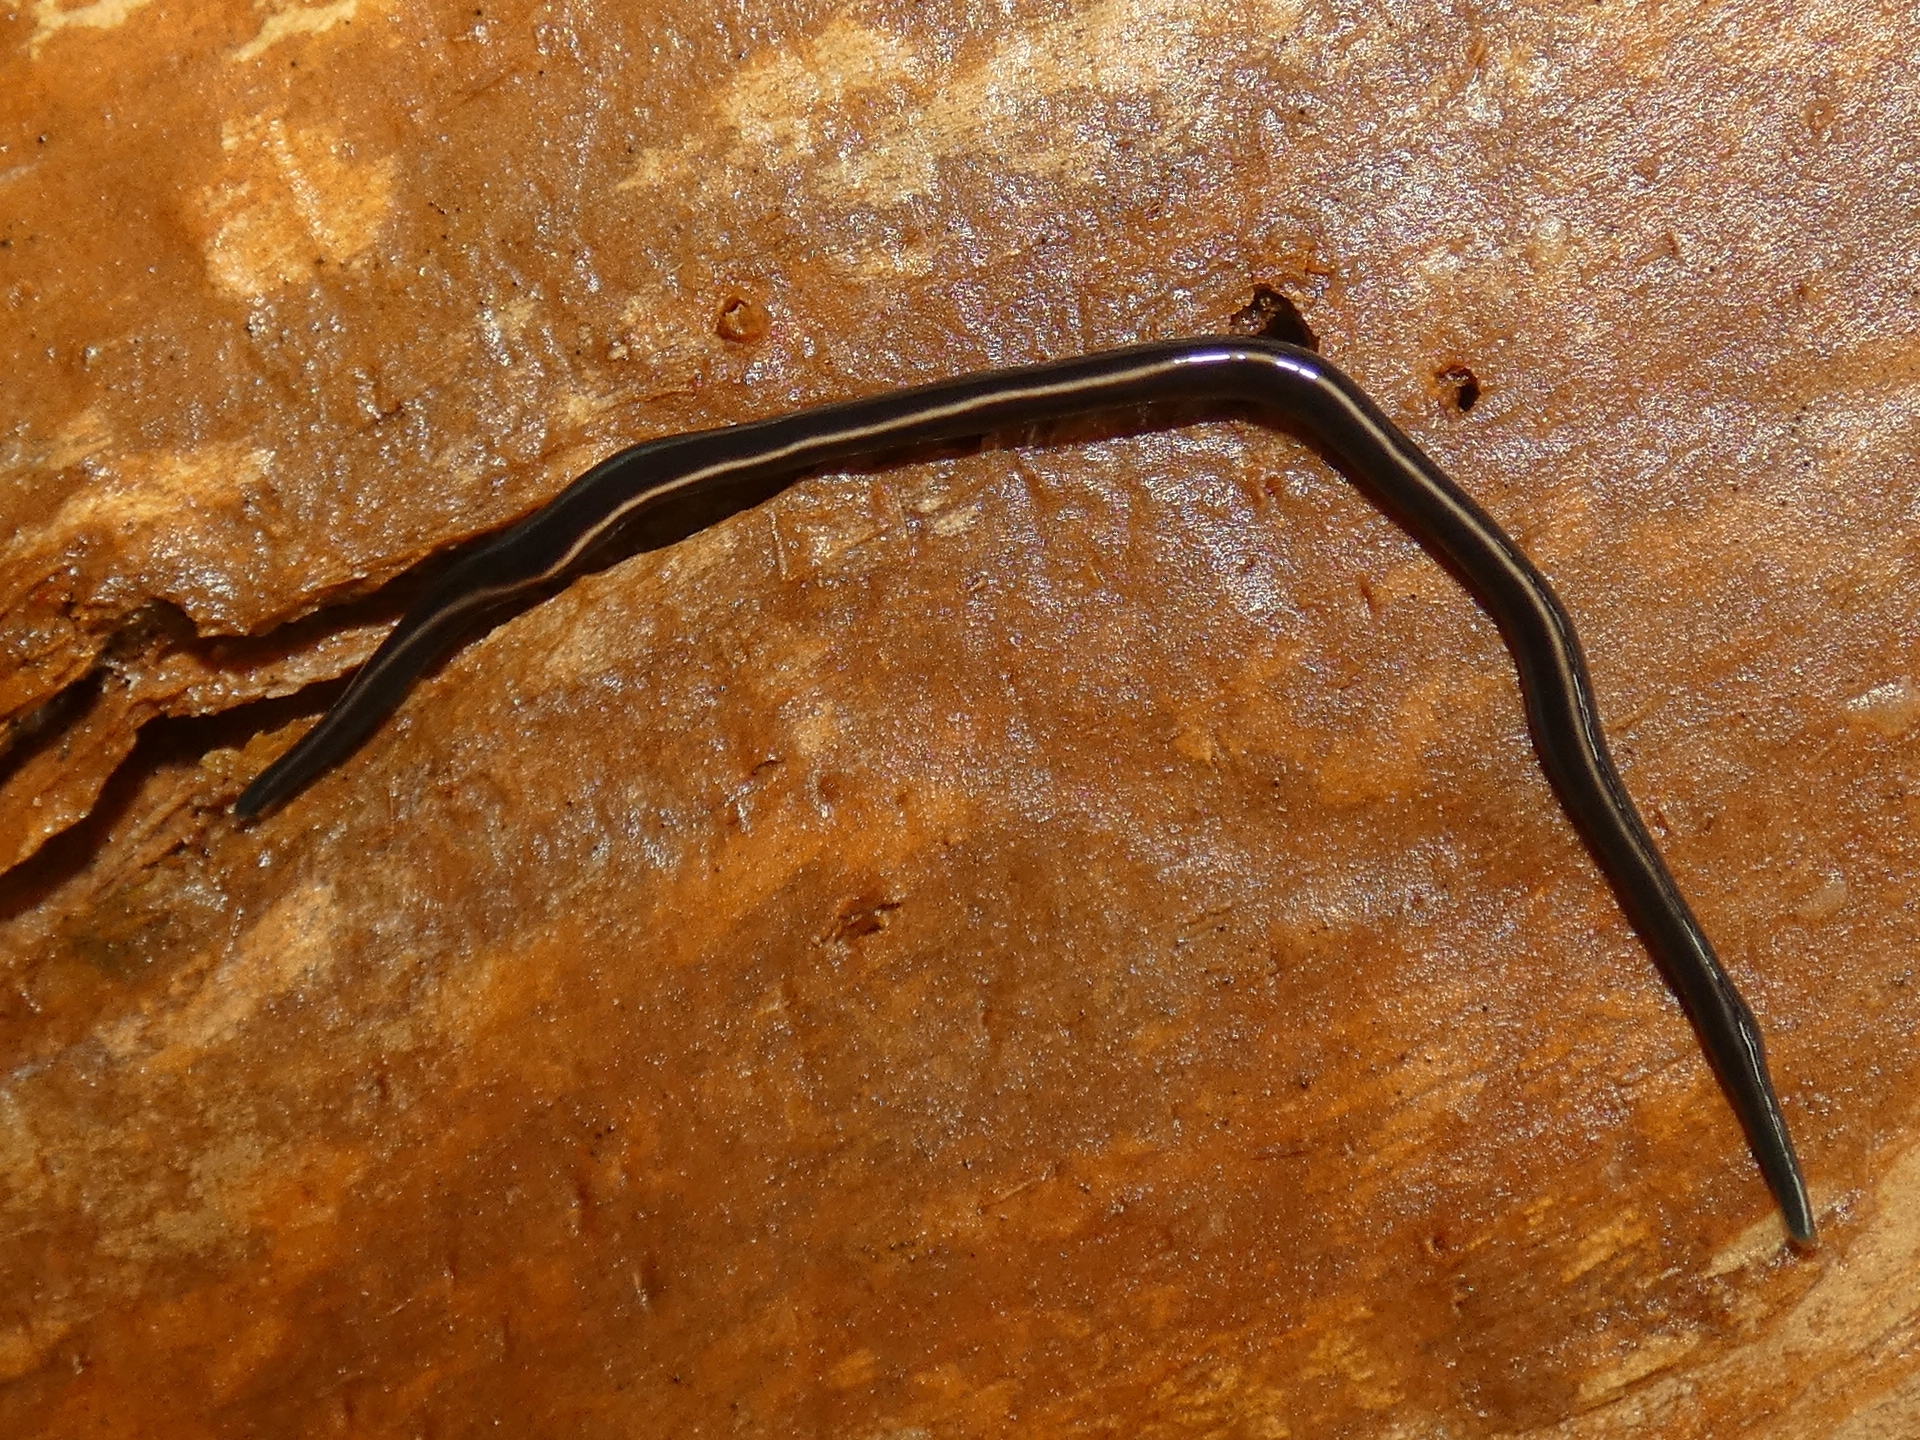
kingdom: Animalia
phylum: Platyhelminthes
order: Tricladida
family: Geoplanidae
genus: Caenoplana
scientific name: Caenoplana coerulea
